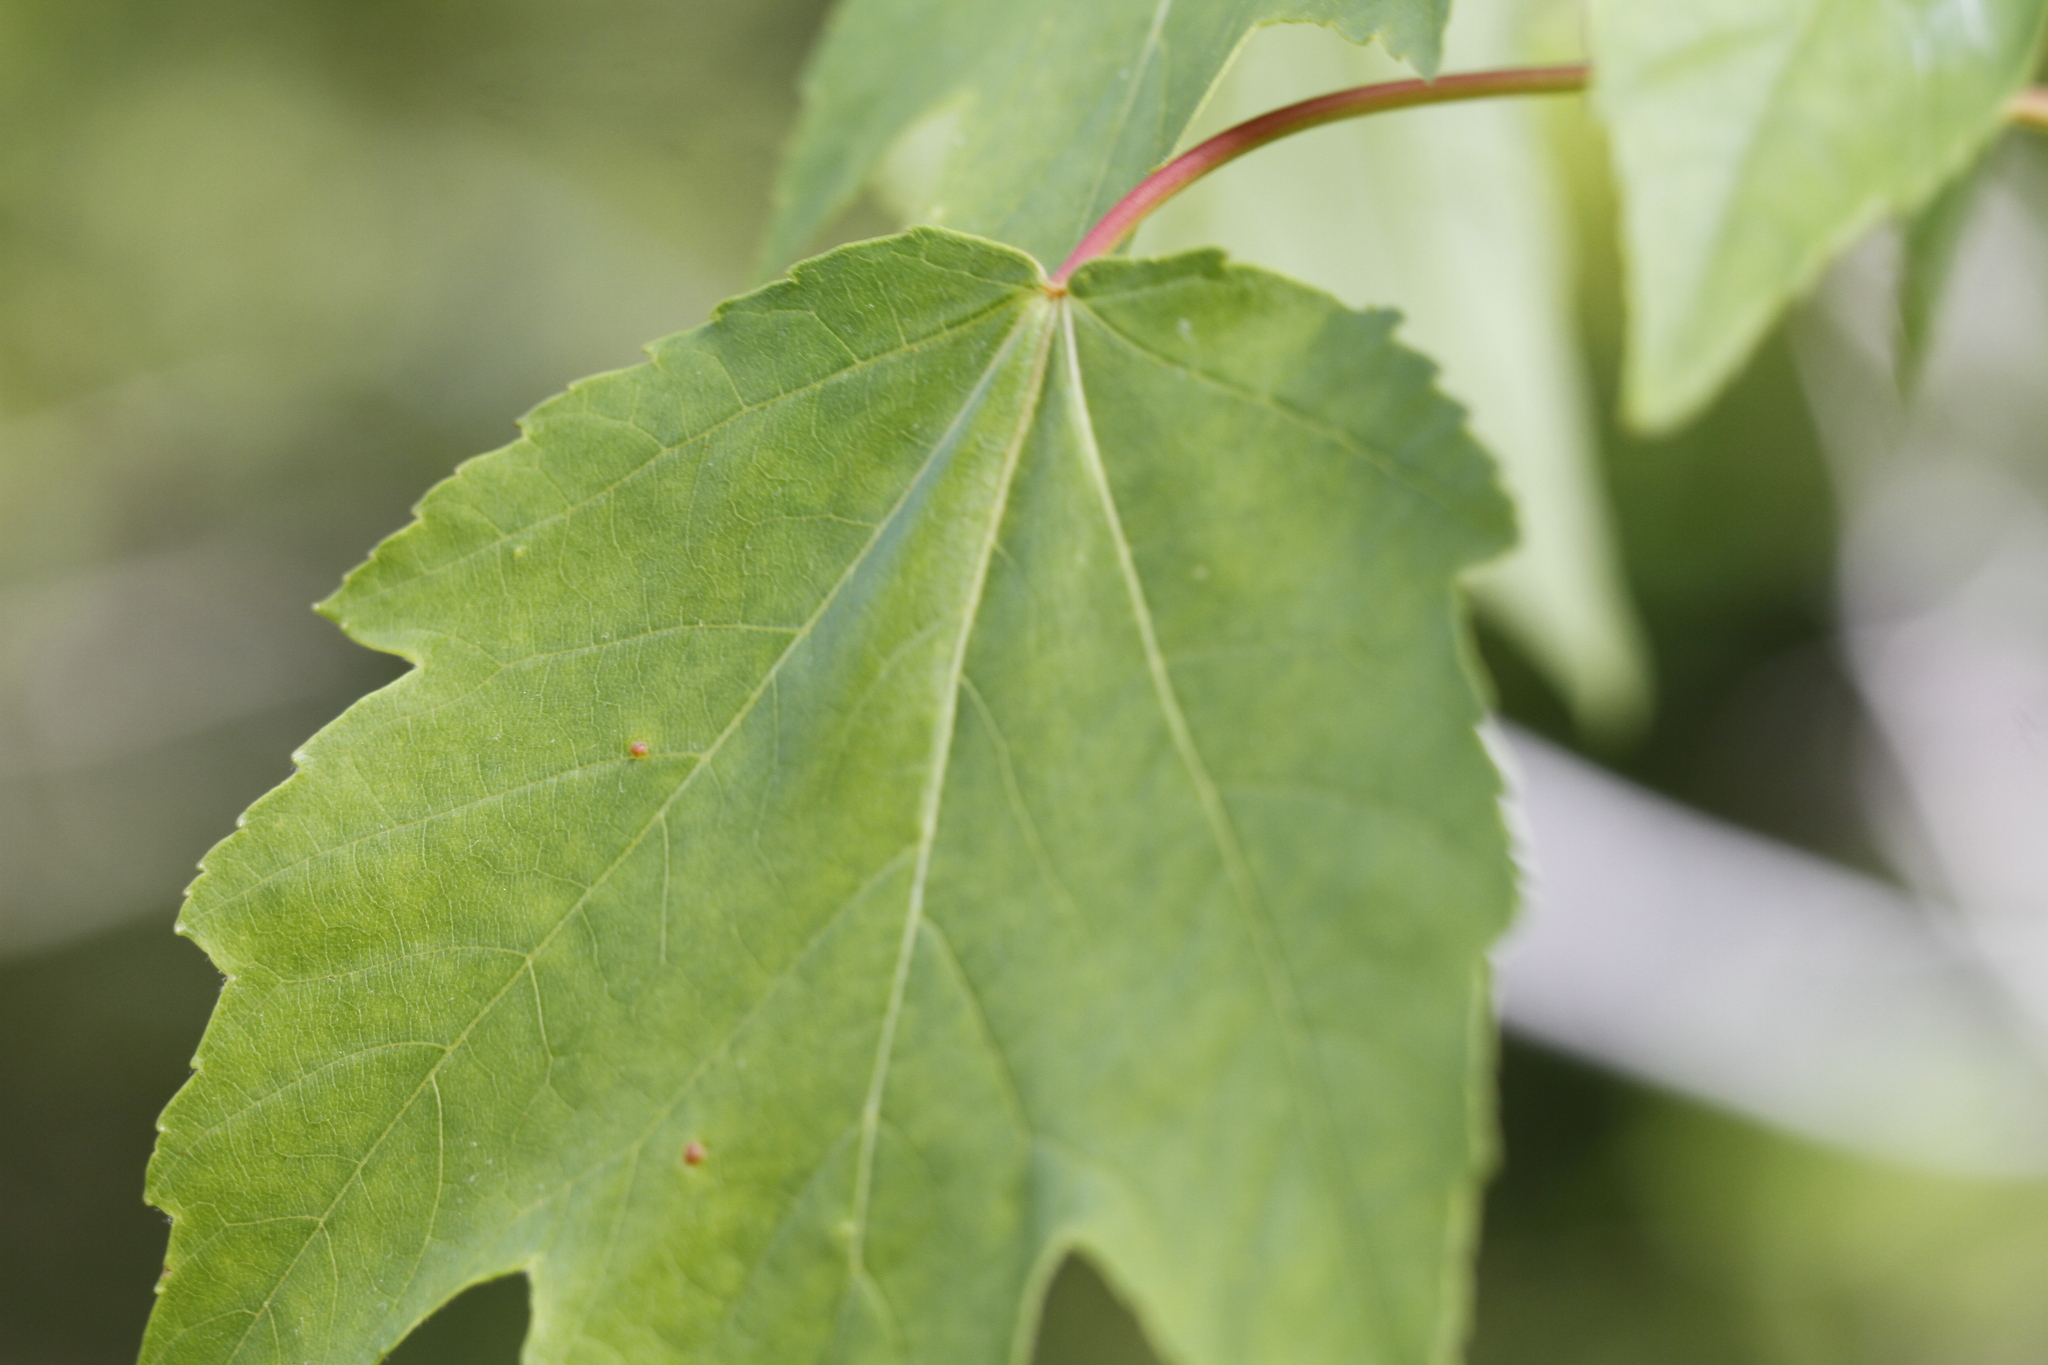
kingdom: Plantae
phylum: Tracheophyta
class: Magnoliopsida
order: Sapindales
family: Sapindaceae
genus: Acer
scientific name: Acer rubrum
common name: Red maple
